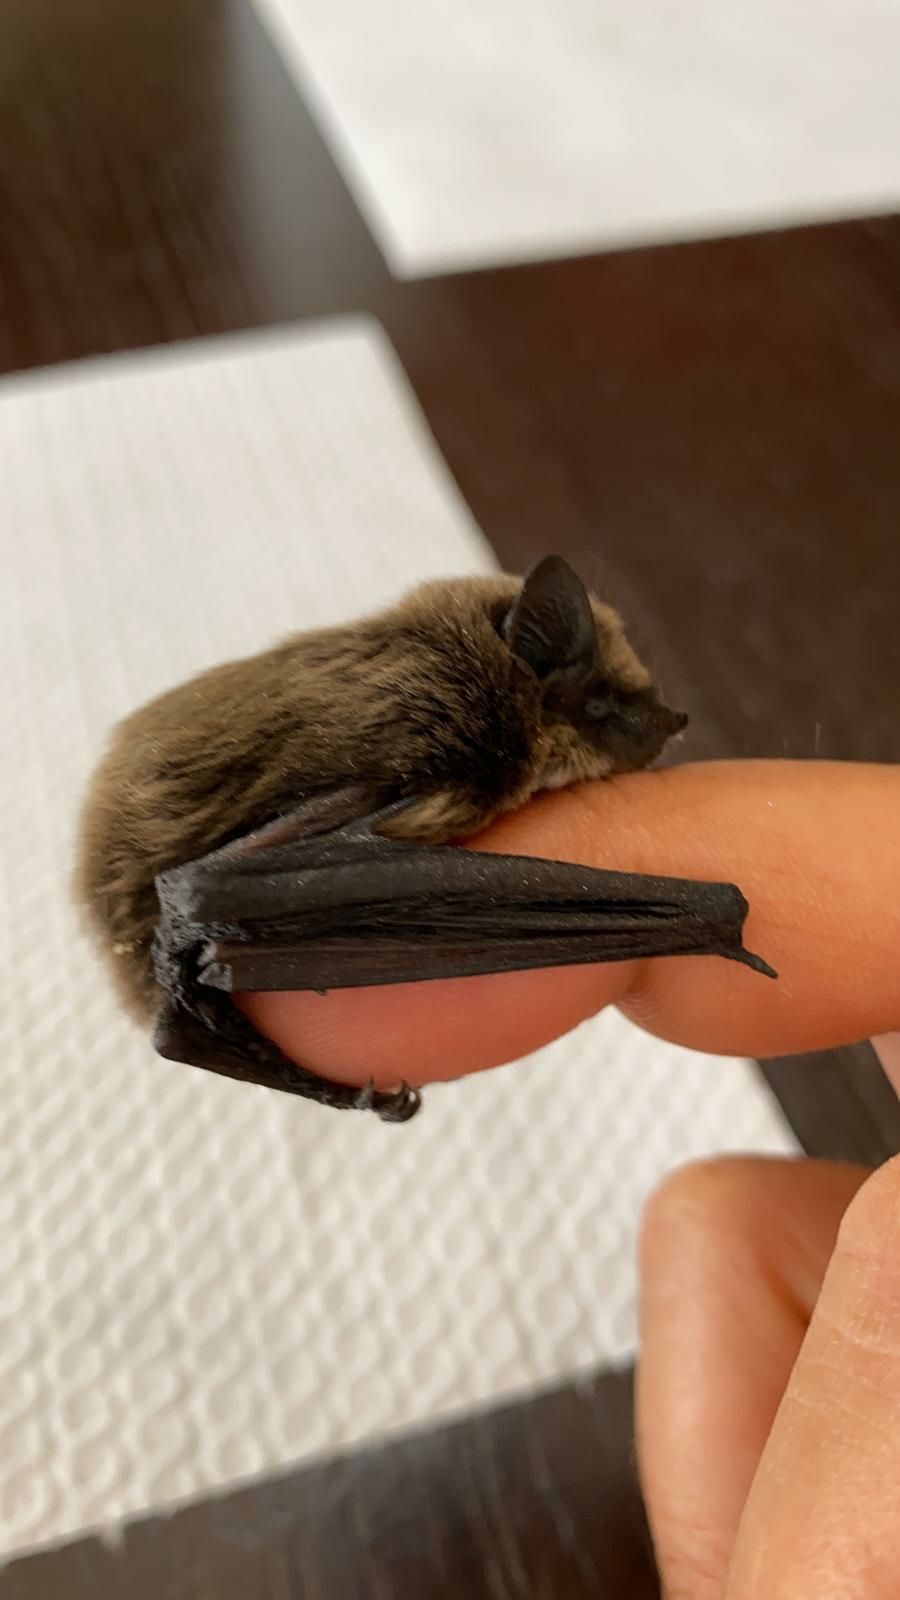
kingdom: Animalia
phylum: Chordata
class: Mammalia
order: Chiroptera
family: Vespertilionidae
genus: Hypsugo
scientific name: Hypsugo savii
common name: Savi's pipistrelle
